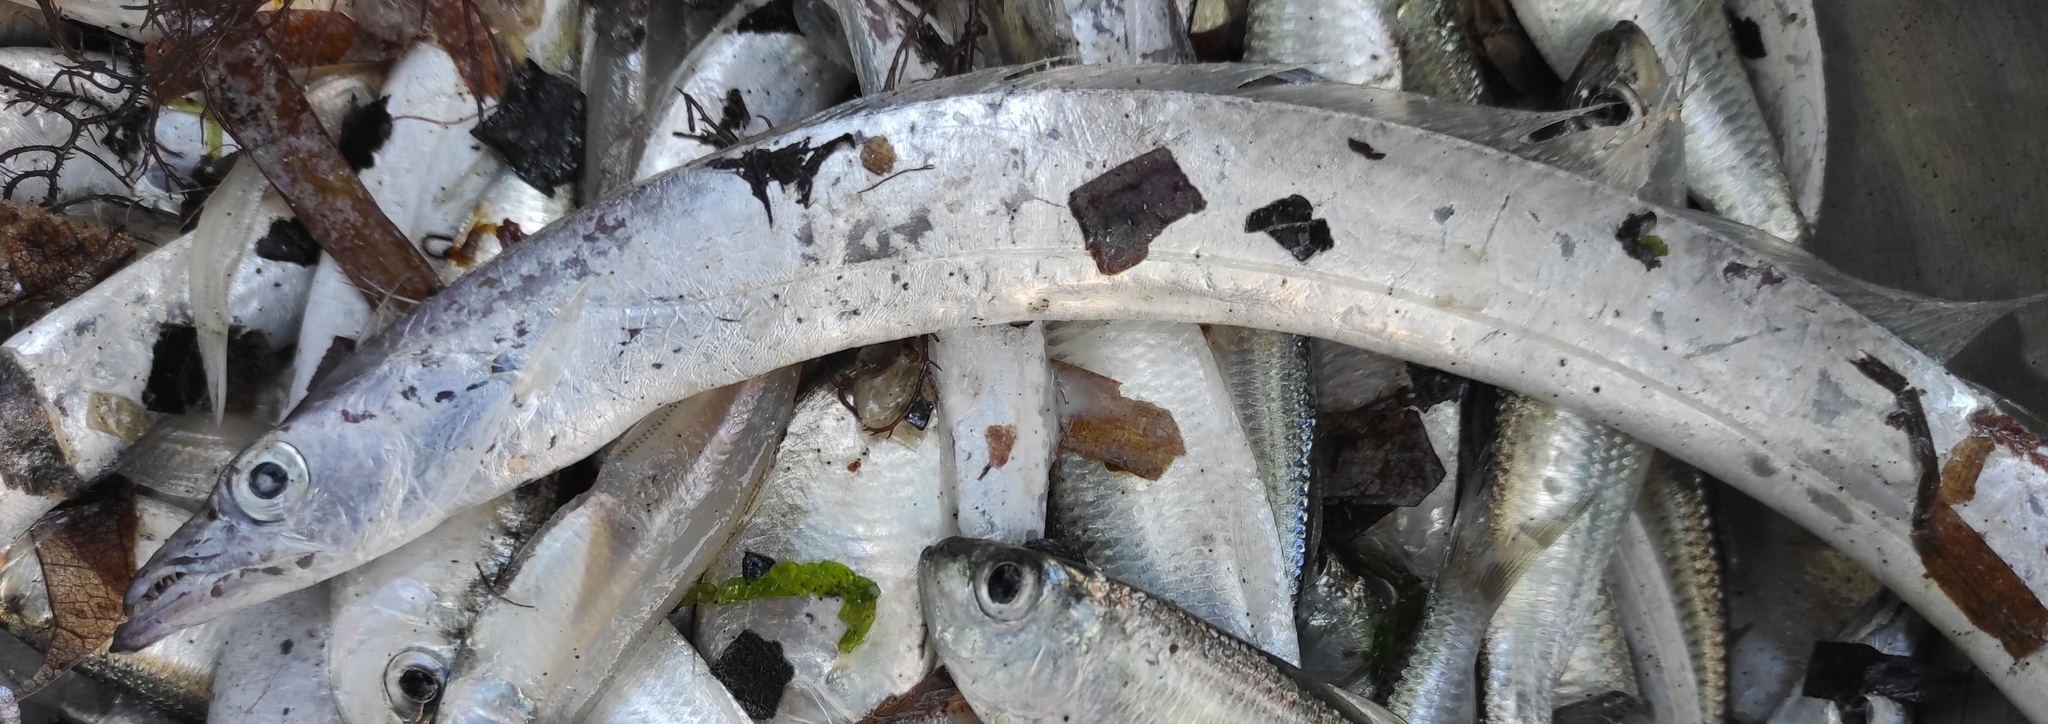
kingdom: Animalia
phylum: Chordata
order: Perciformes
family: Trichiuridae
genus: Trichiurus
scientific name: Trichiurus lepturus
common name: Largehead hairtail
